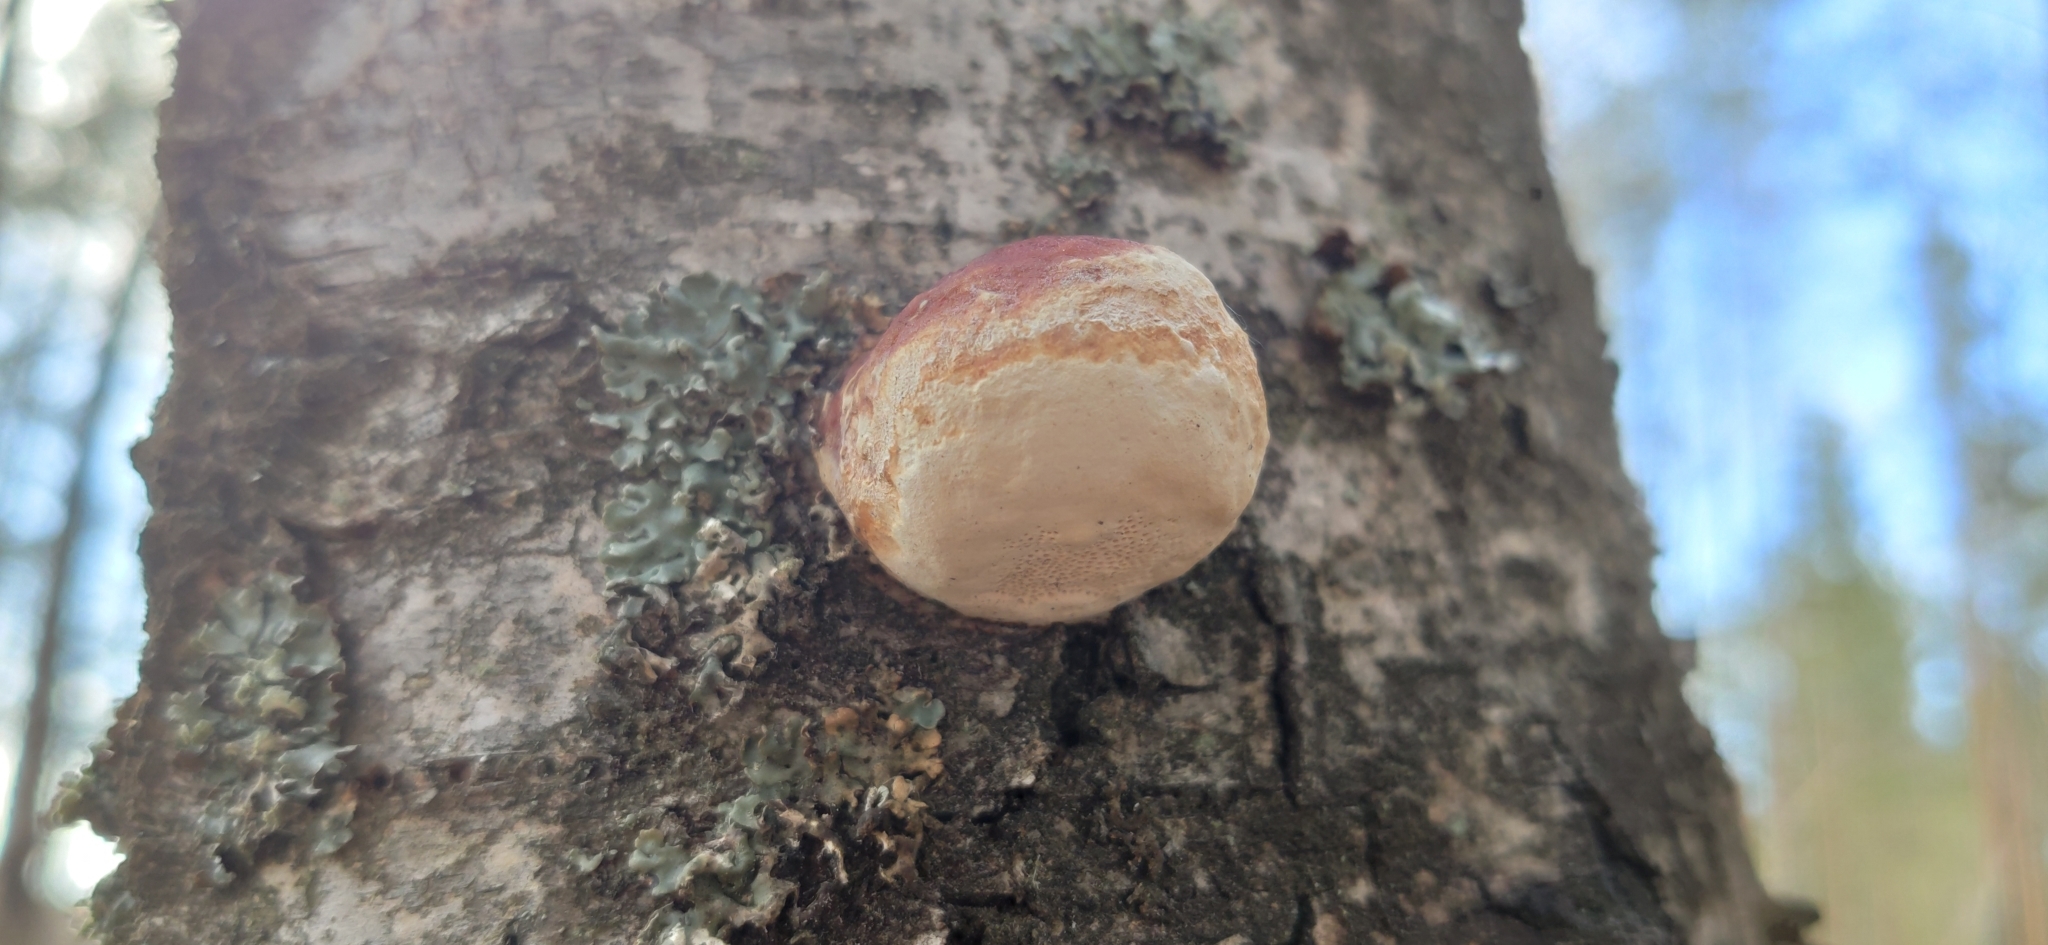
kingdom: Fungi
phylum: Basidiomycota
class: Agaricomycetes
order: Polyporales
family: Fomitopsidaceae
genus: Fomitopsis
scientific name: Fomitopsis pinicola
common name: Red-belted bracket
